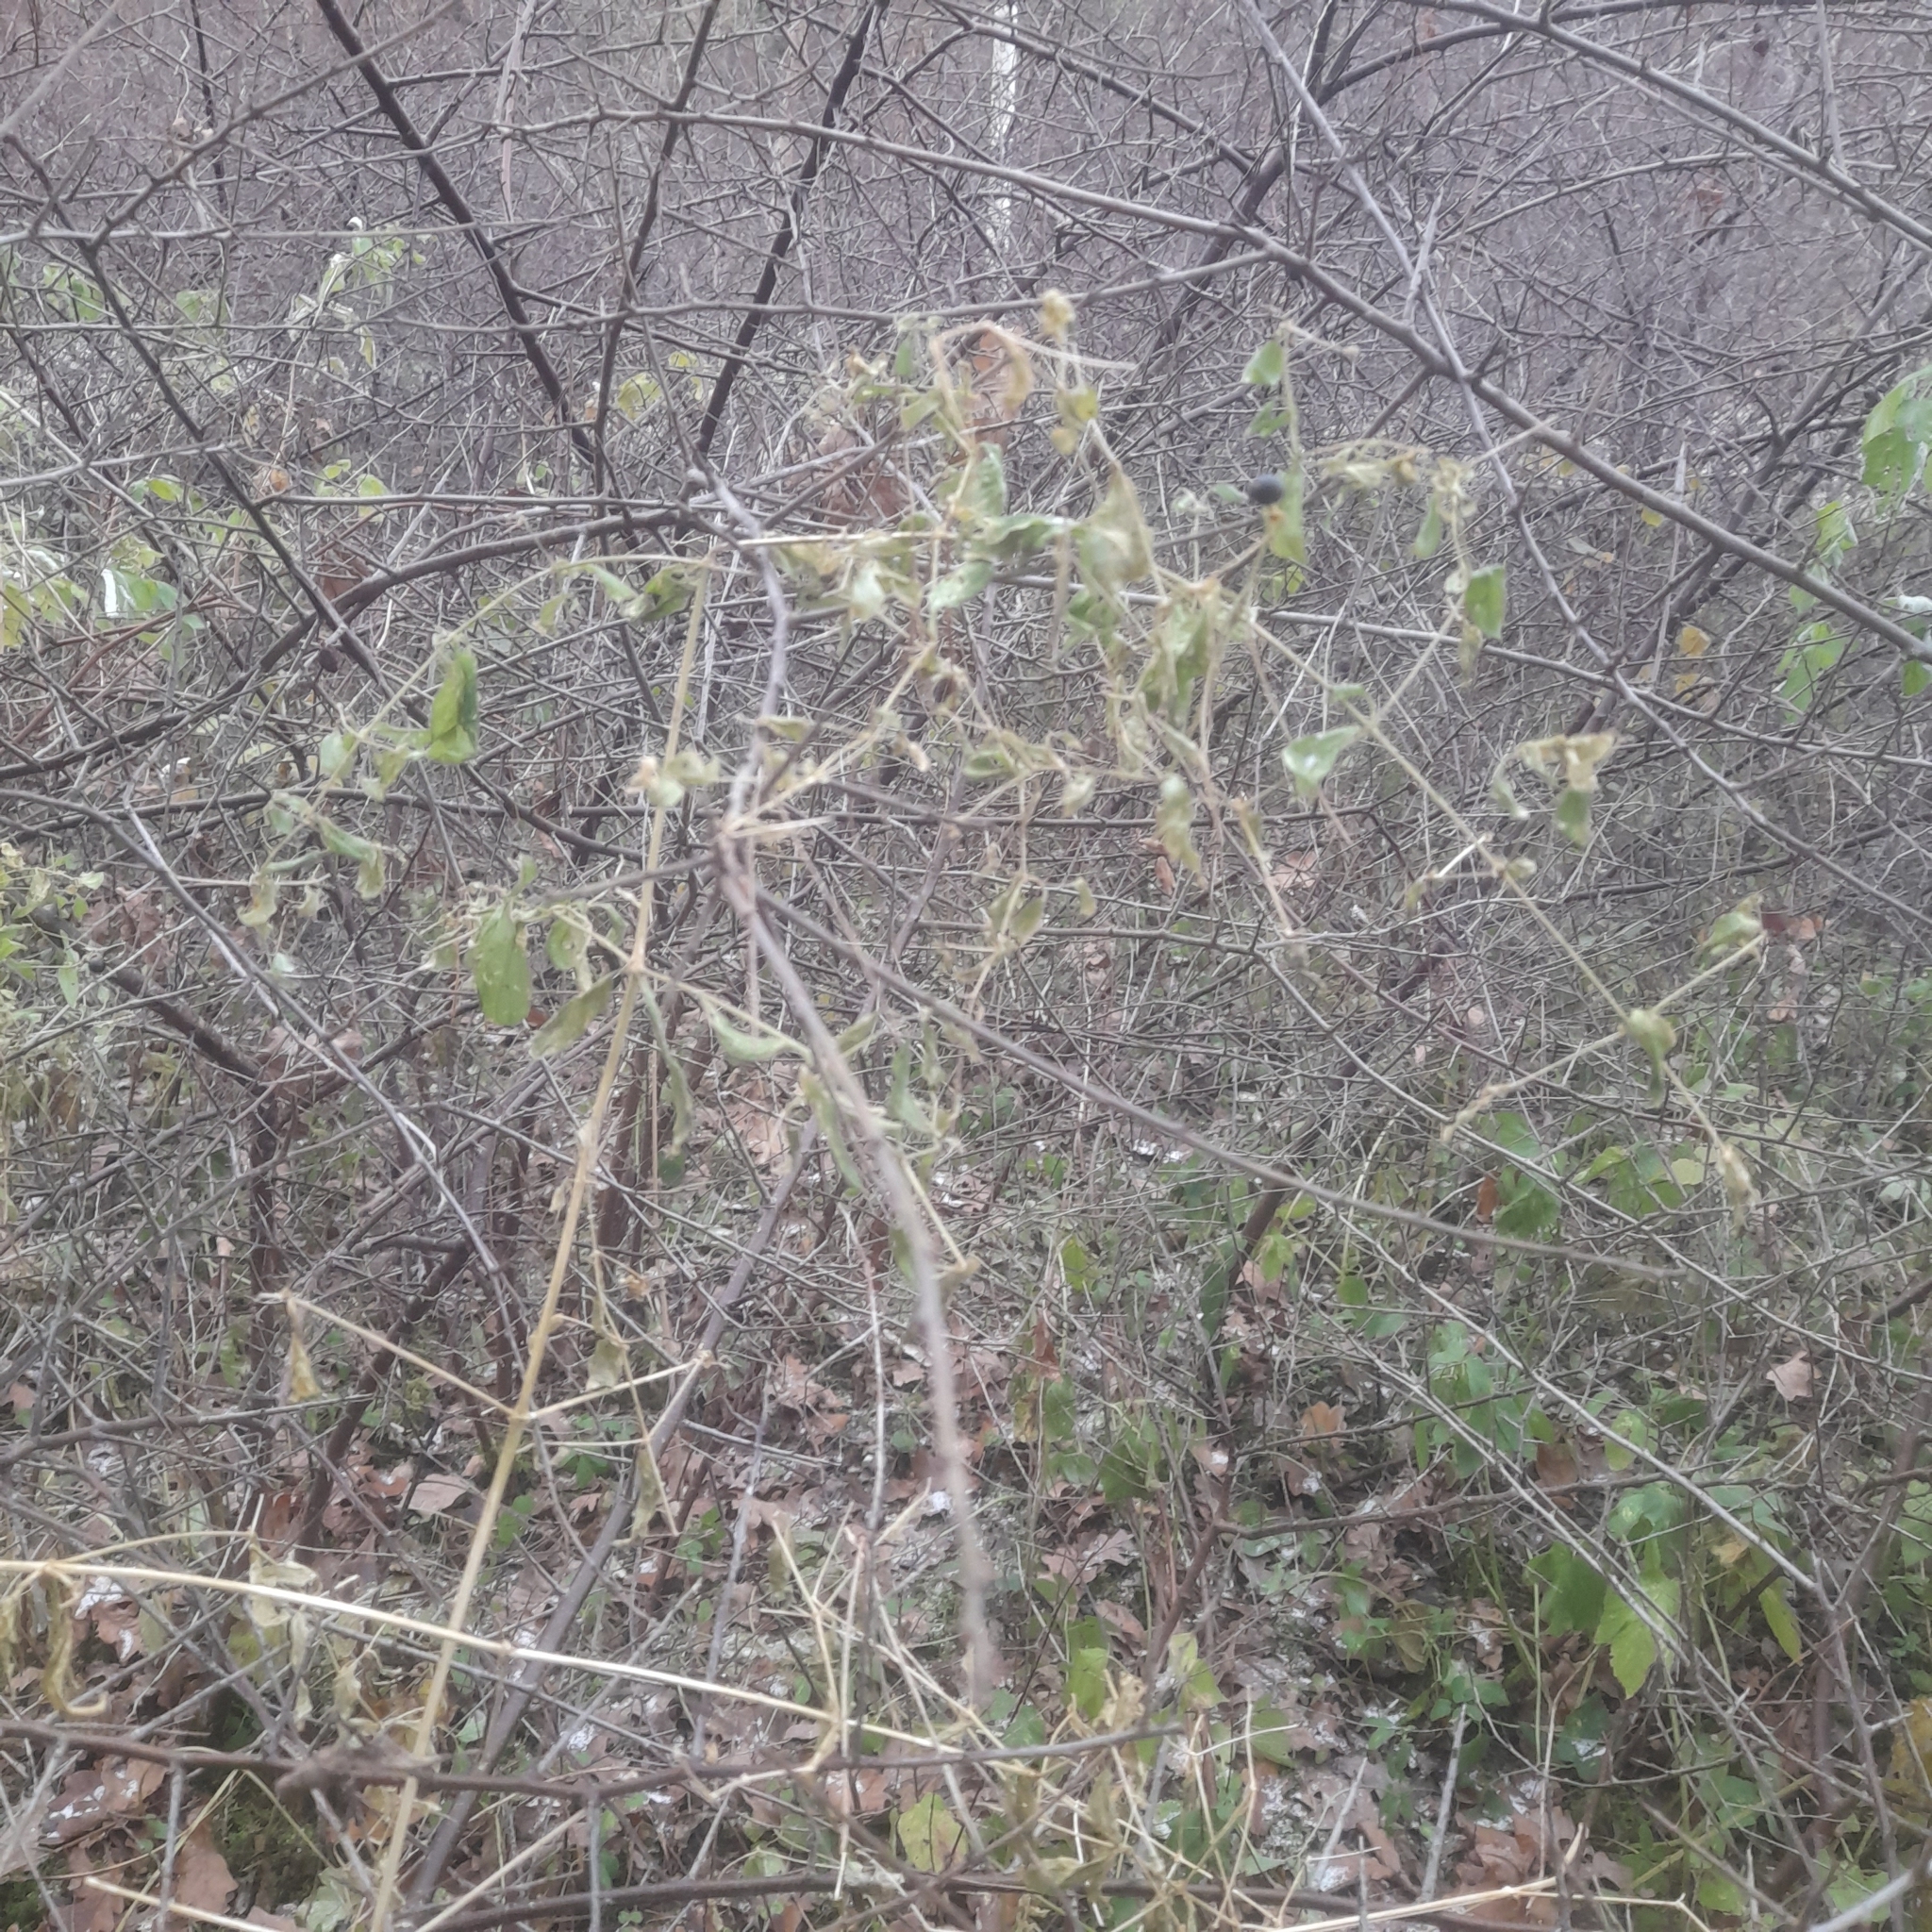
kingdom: Plantae
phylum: Tracheophyta
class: Magnoliopsida
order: Caryophyllales
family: Caryophyllaceae
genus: Silene
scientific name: Silene baccifera
